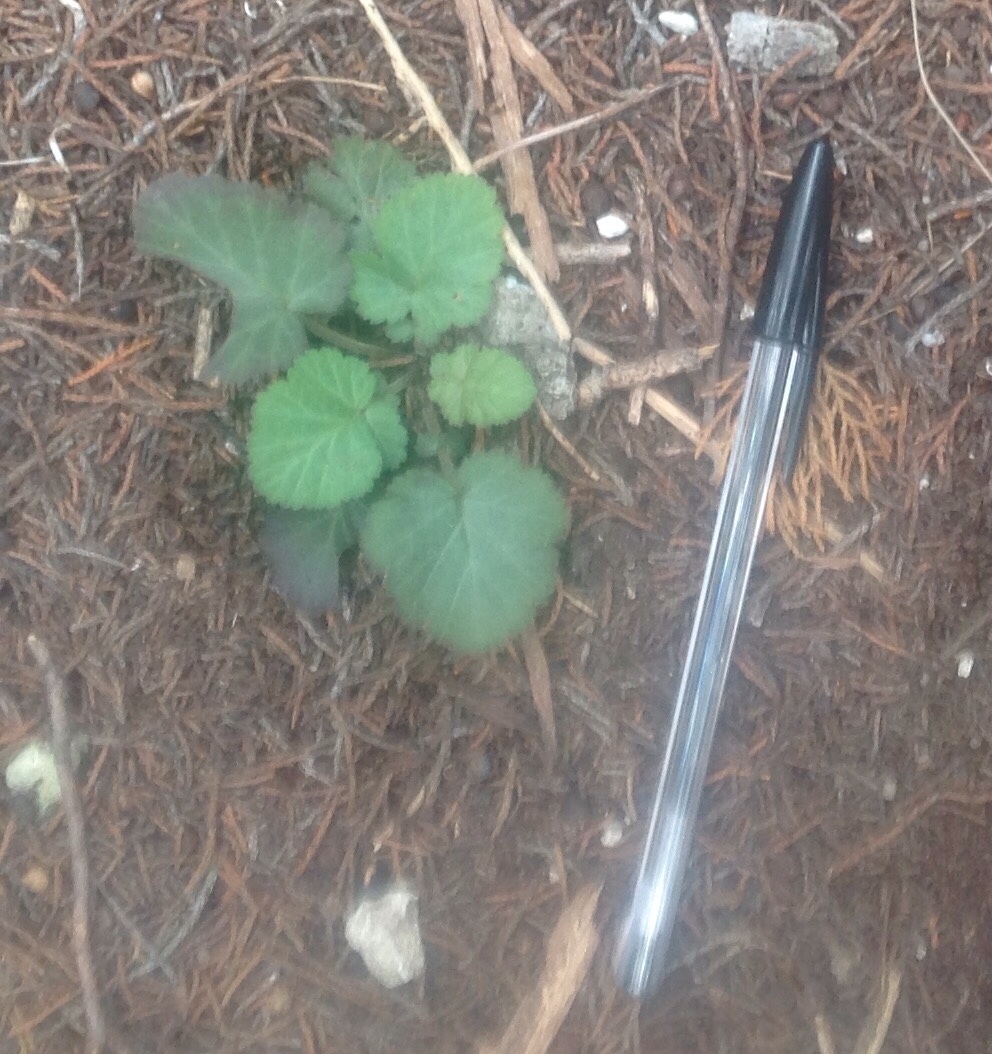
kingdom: Plantae
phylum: Tracheophyta
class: Magnoliopsida
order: Rosales
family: Rosaceae
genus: Geum
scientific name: Geum canadense
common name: White avens
